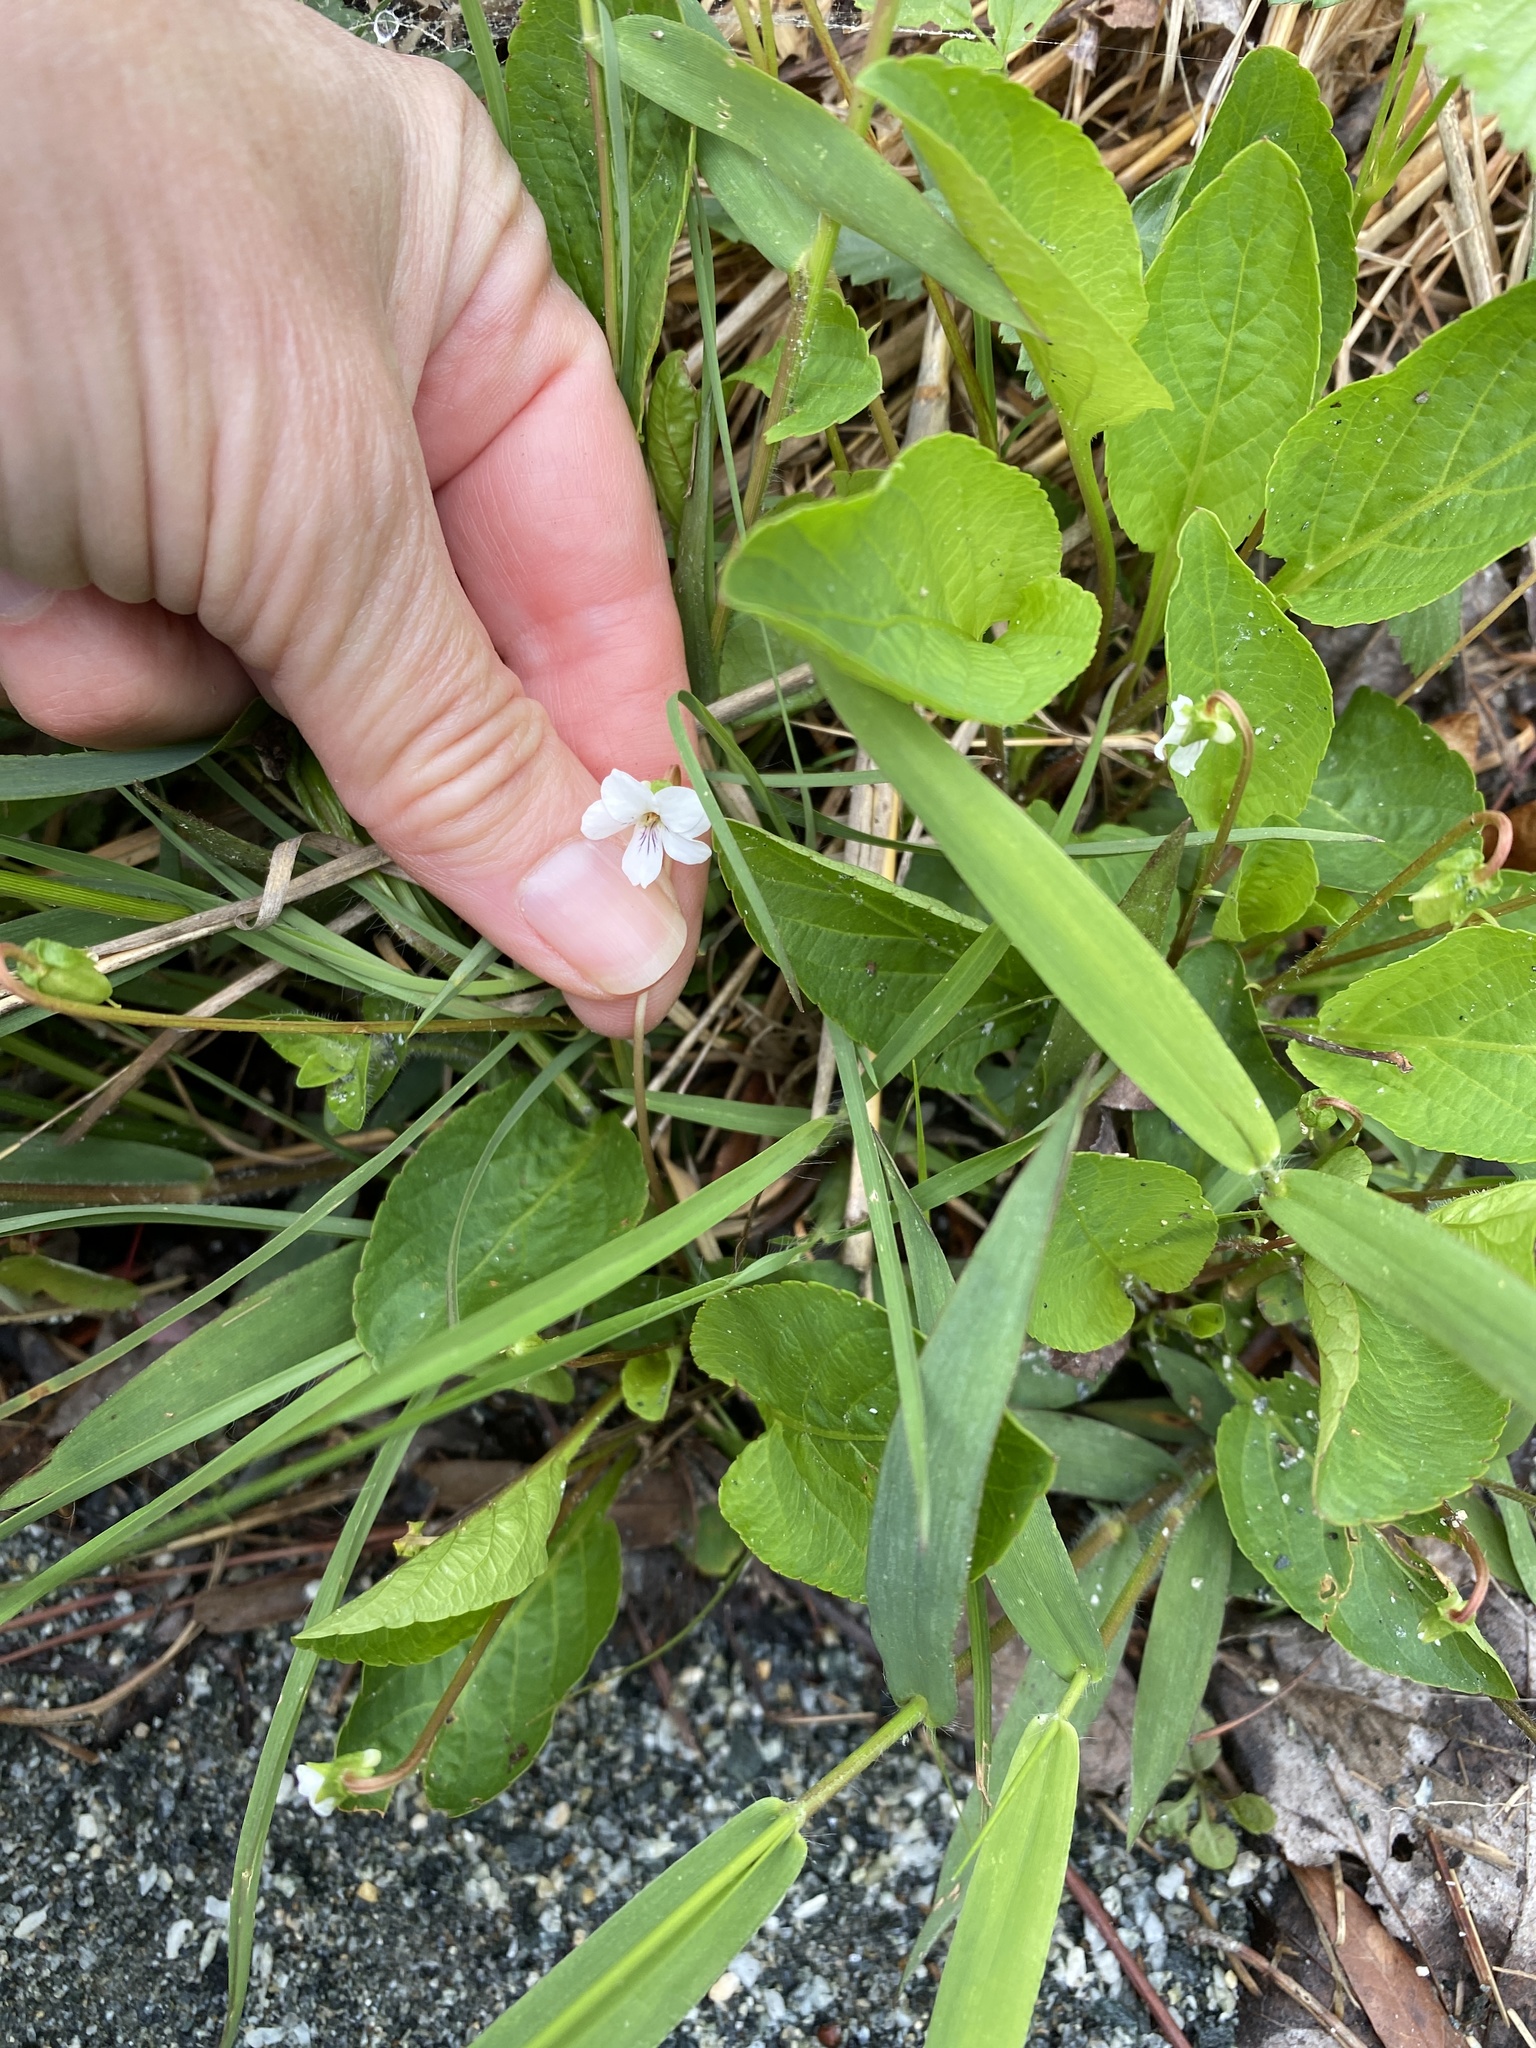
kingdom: Plantae
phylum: Tracheophyta
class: Magnoliopsida
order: Malpighiales
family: Violaceae
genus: Viola
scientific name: Viola primulifolia
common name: Primrose-leaf violet
